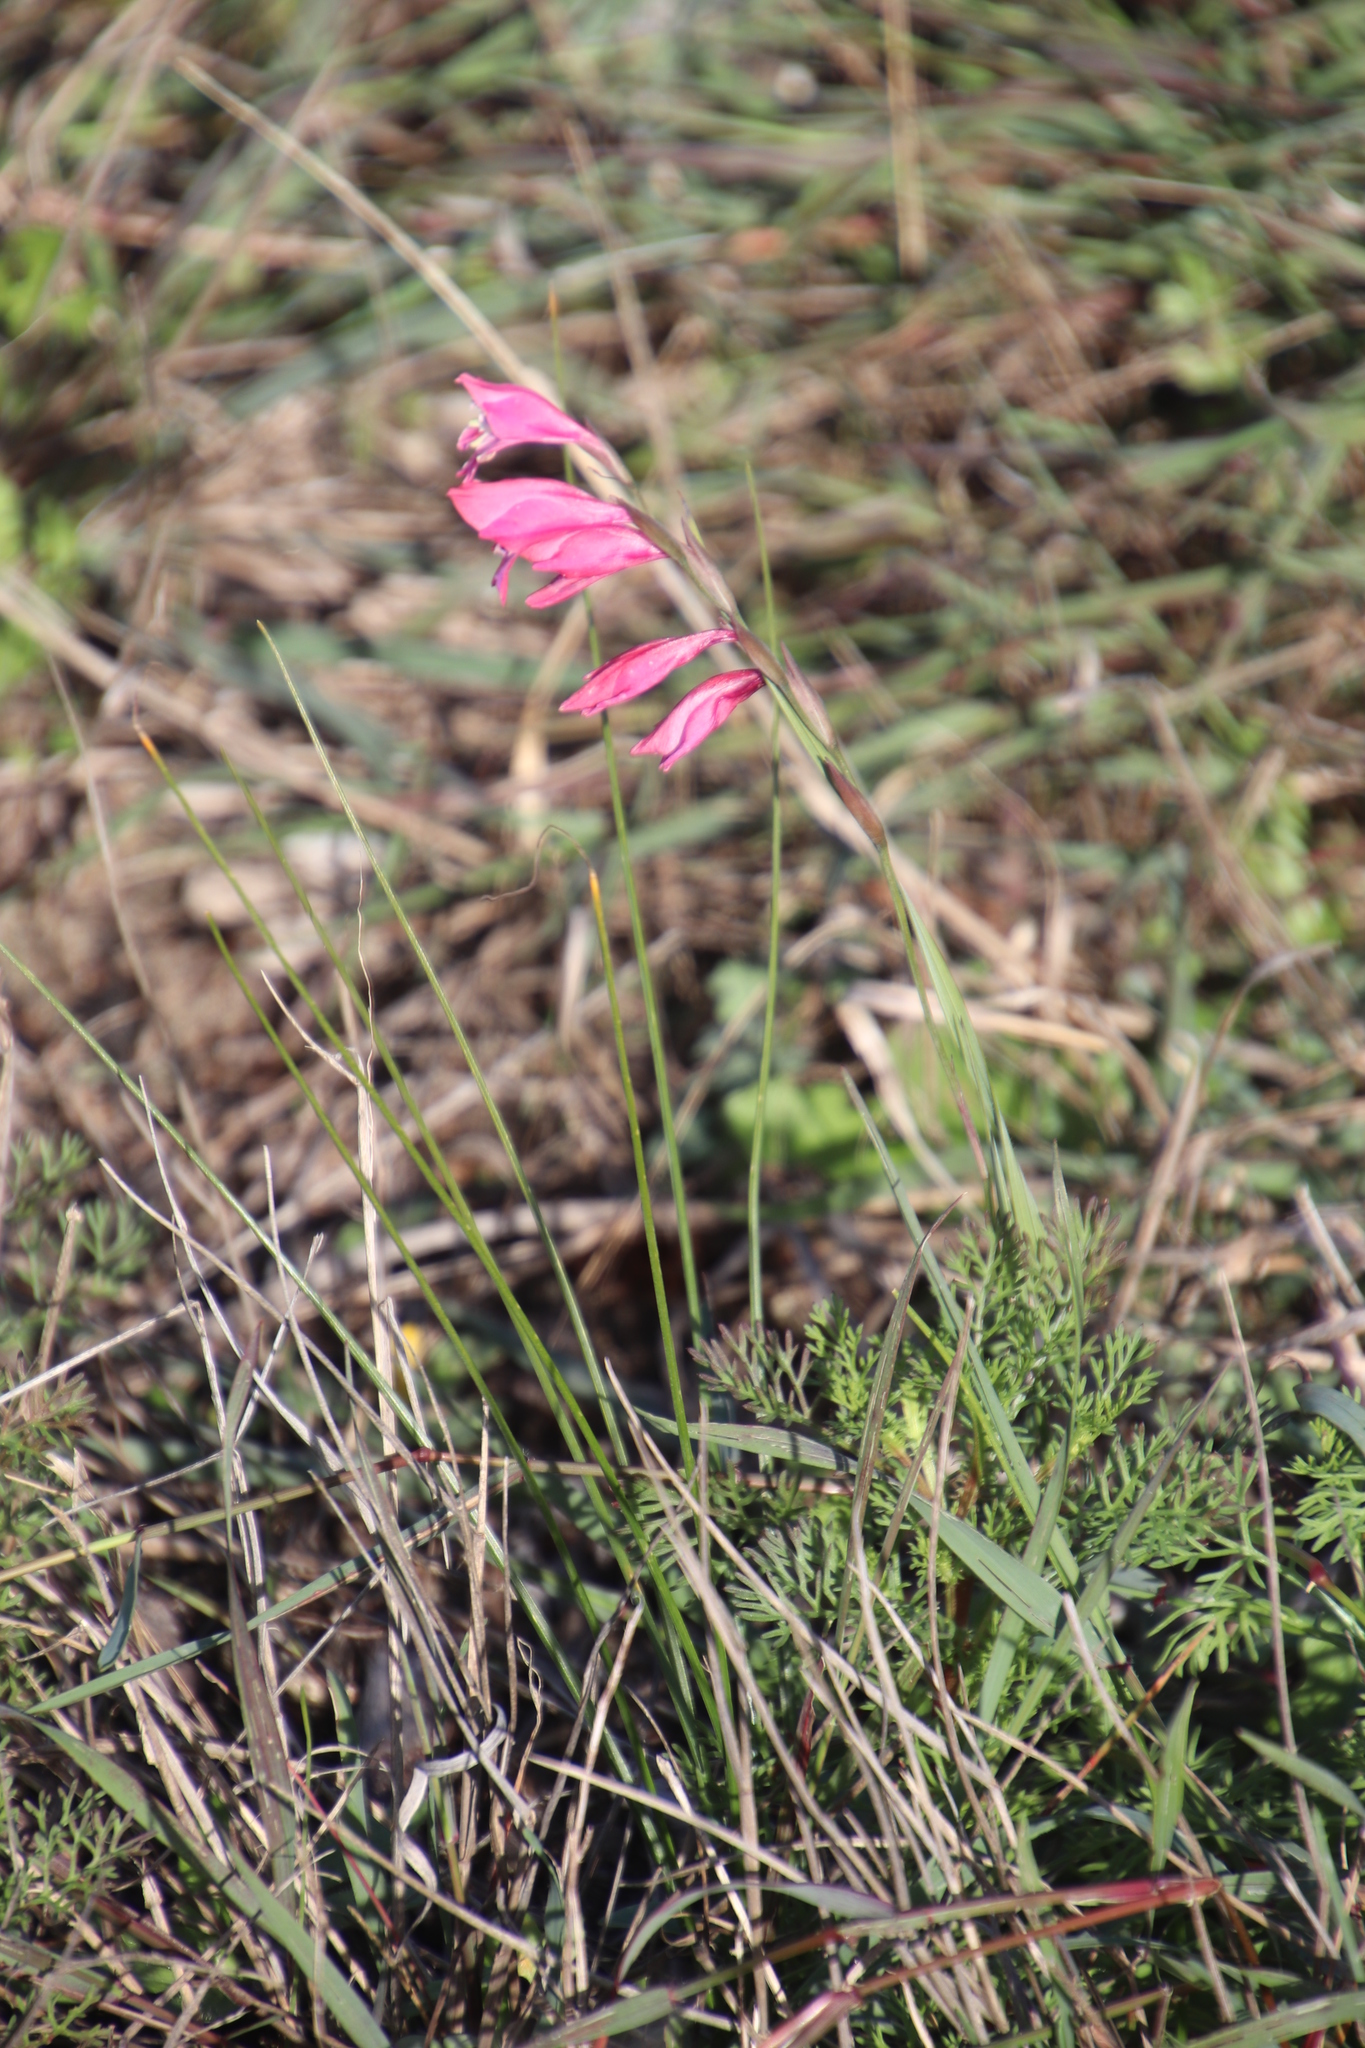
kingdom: Plantae
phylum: Tracheophyta
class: Liliopsida
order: Asparagales
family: Iridaceae
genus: Gladiolus
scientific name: Gladiolus brevifolius
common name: March pypie
